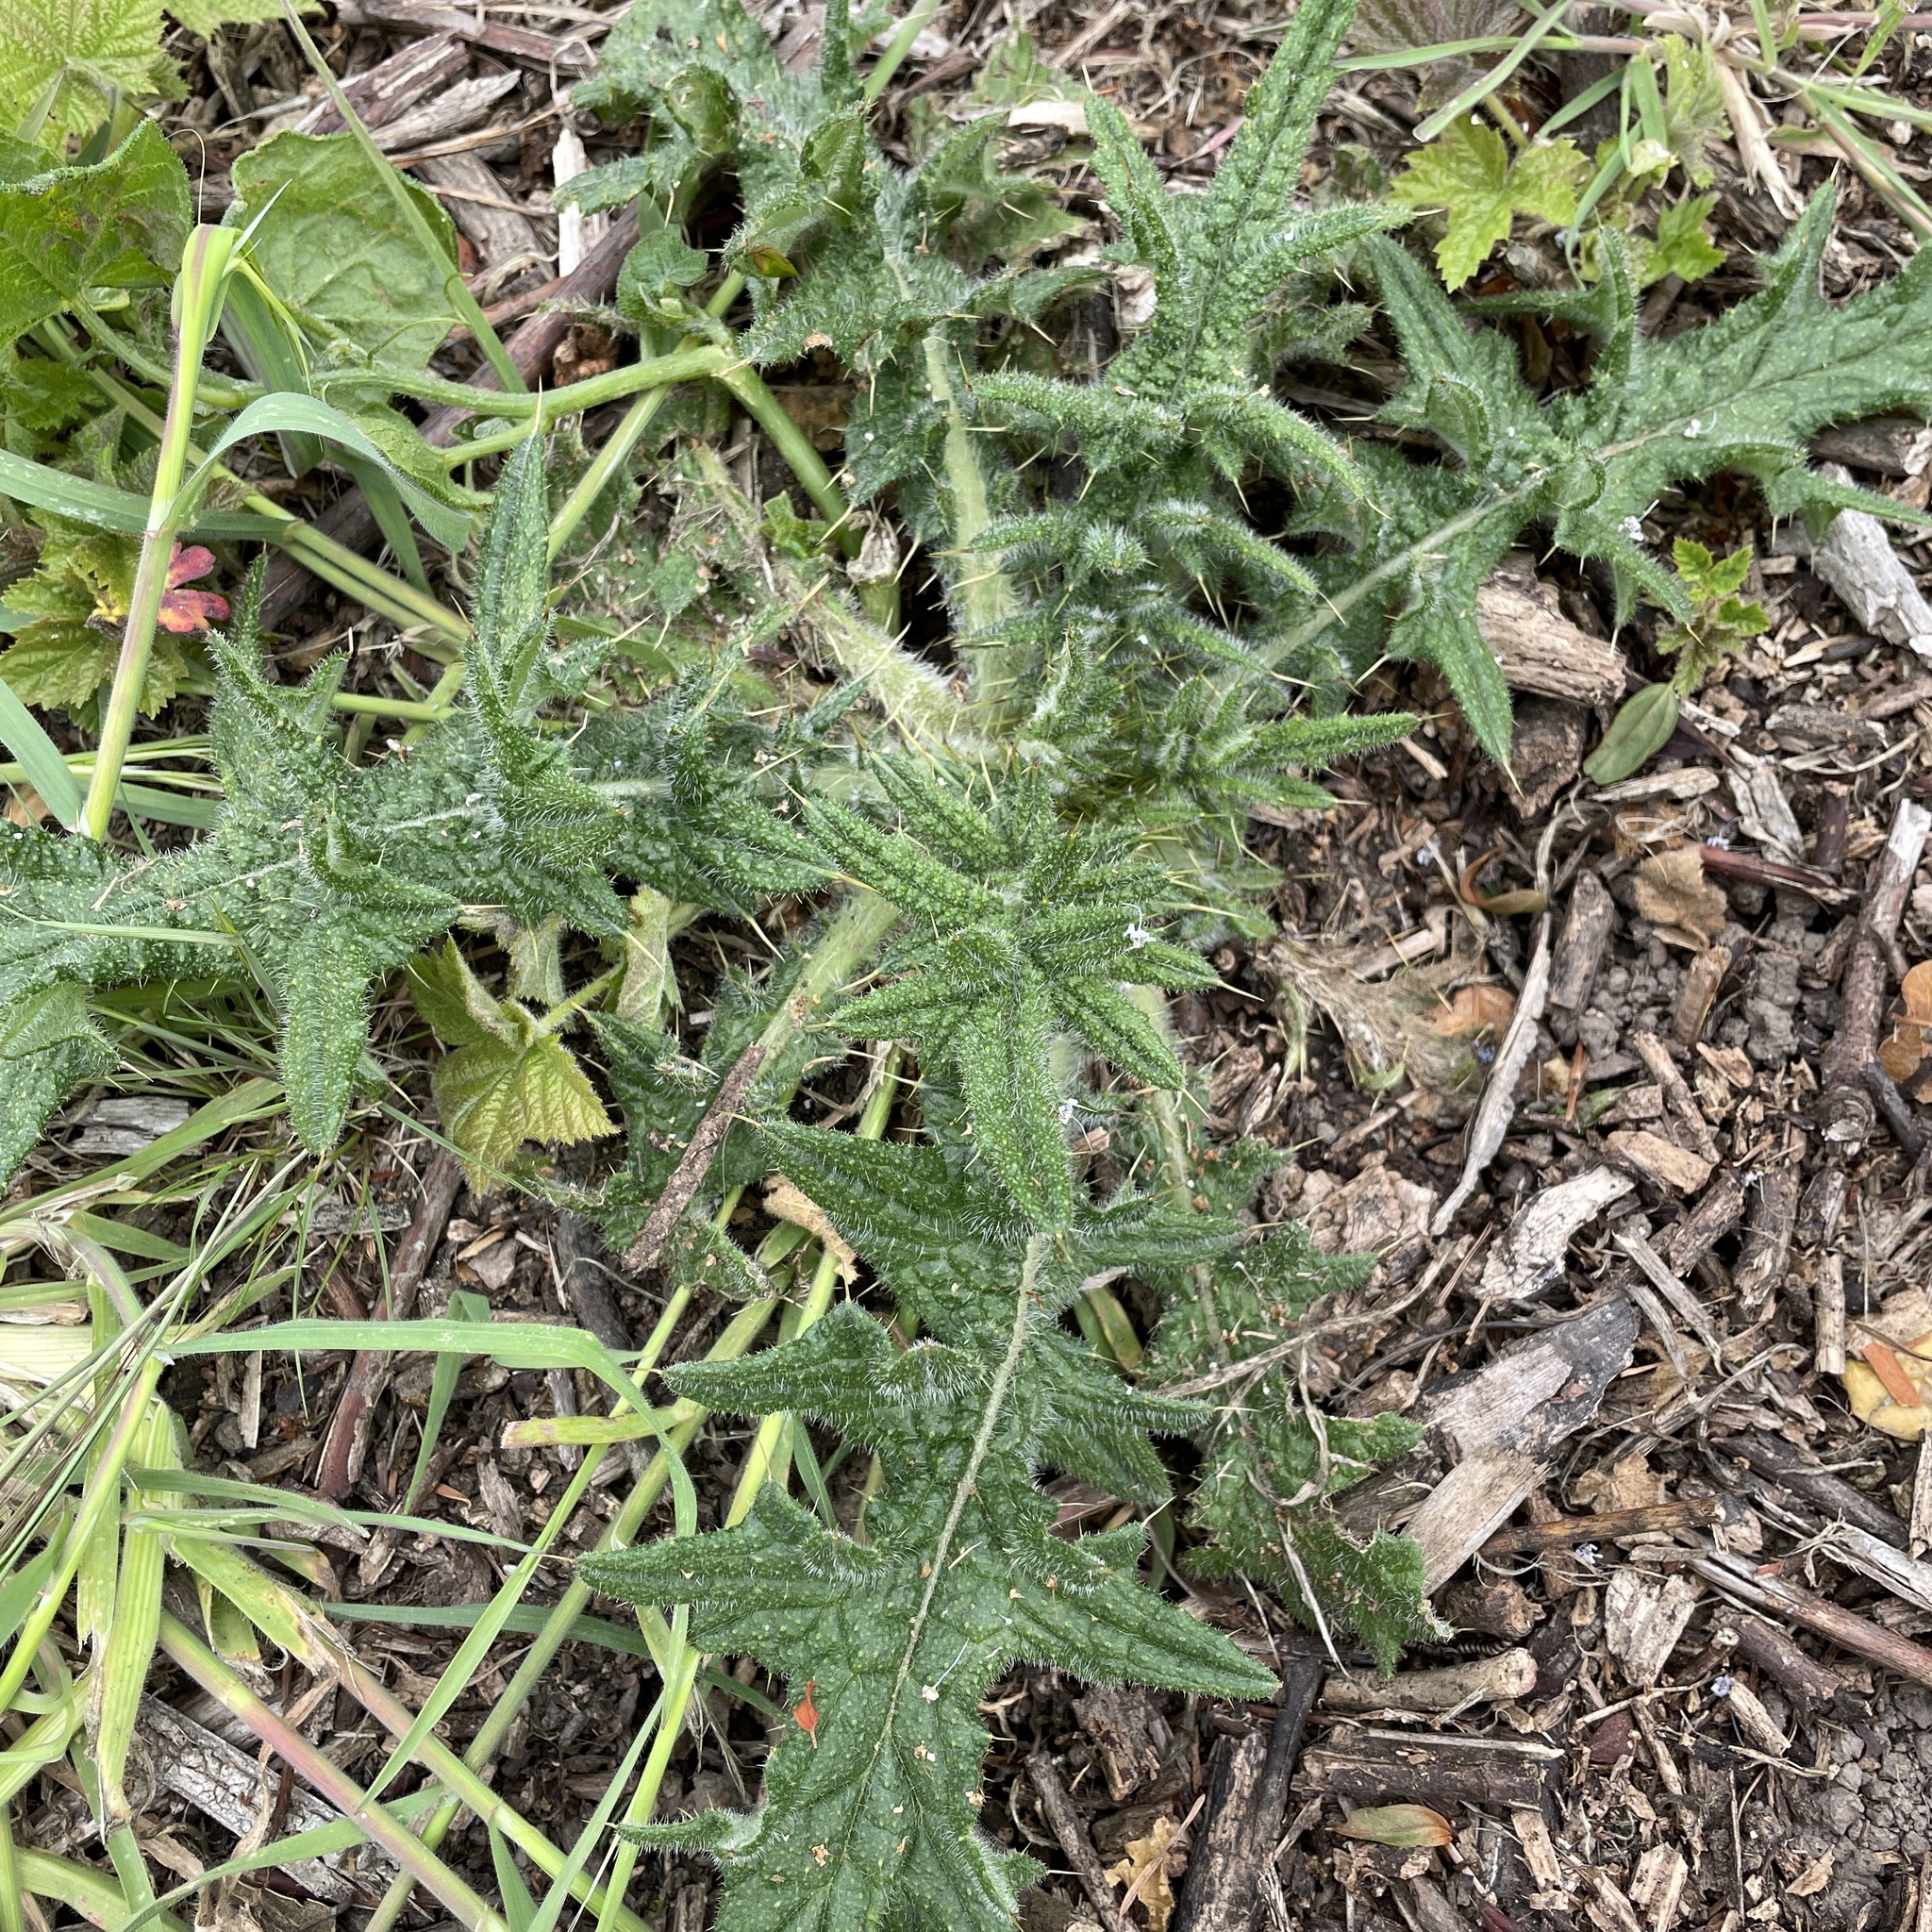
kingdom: Plantae
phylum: Tracheophyta
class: Magnoliopsida
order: Asterales
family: Asteraceae
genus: Cirsium
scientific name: Cirsium vulgare
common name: Bull thistle
